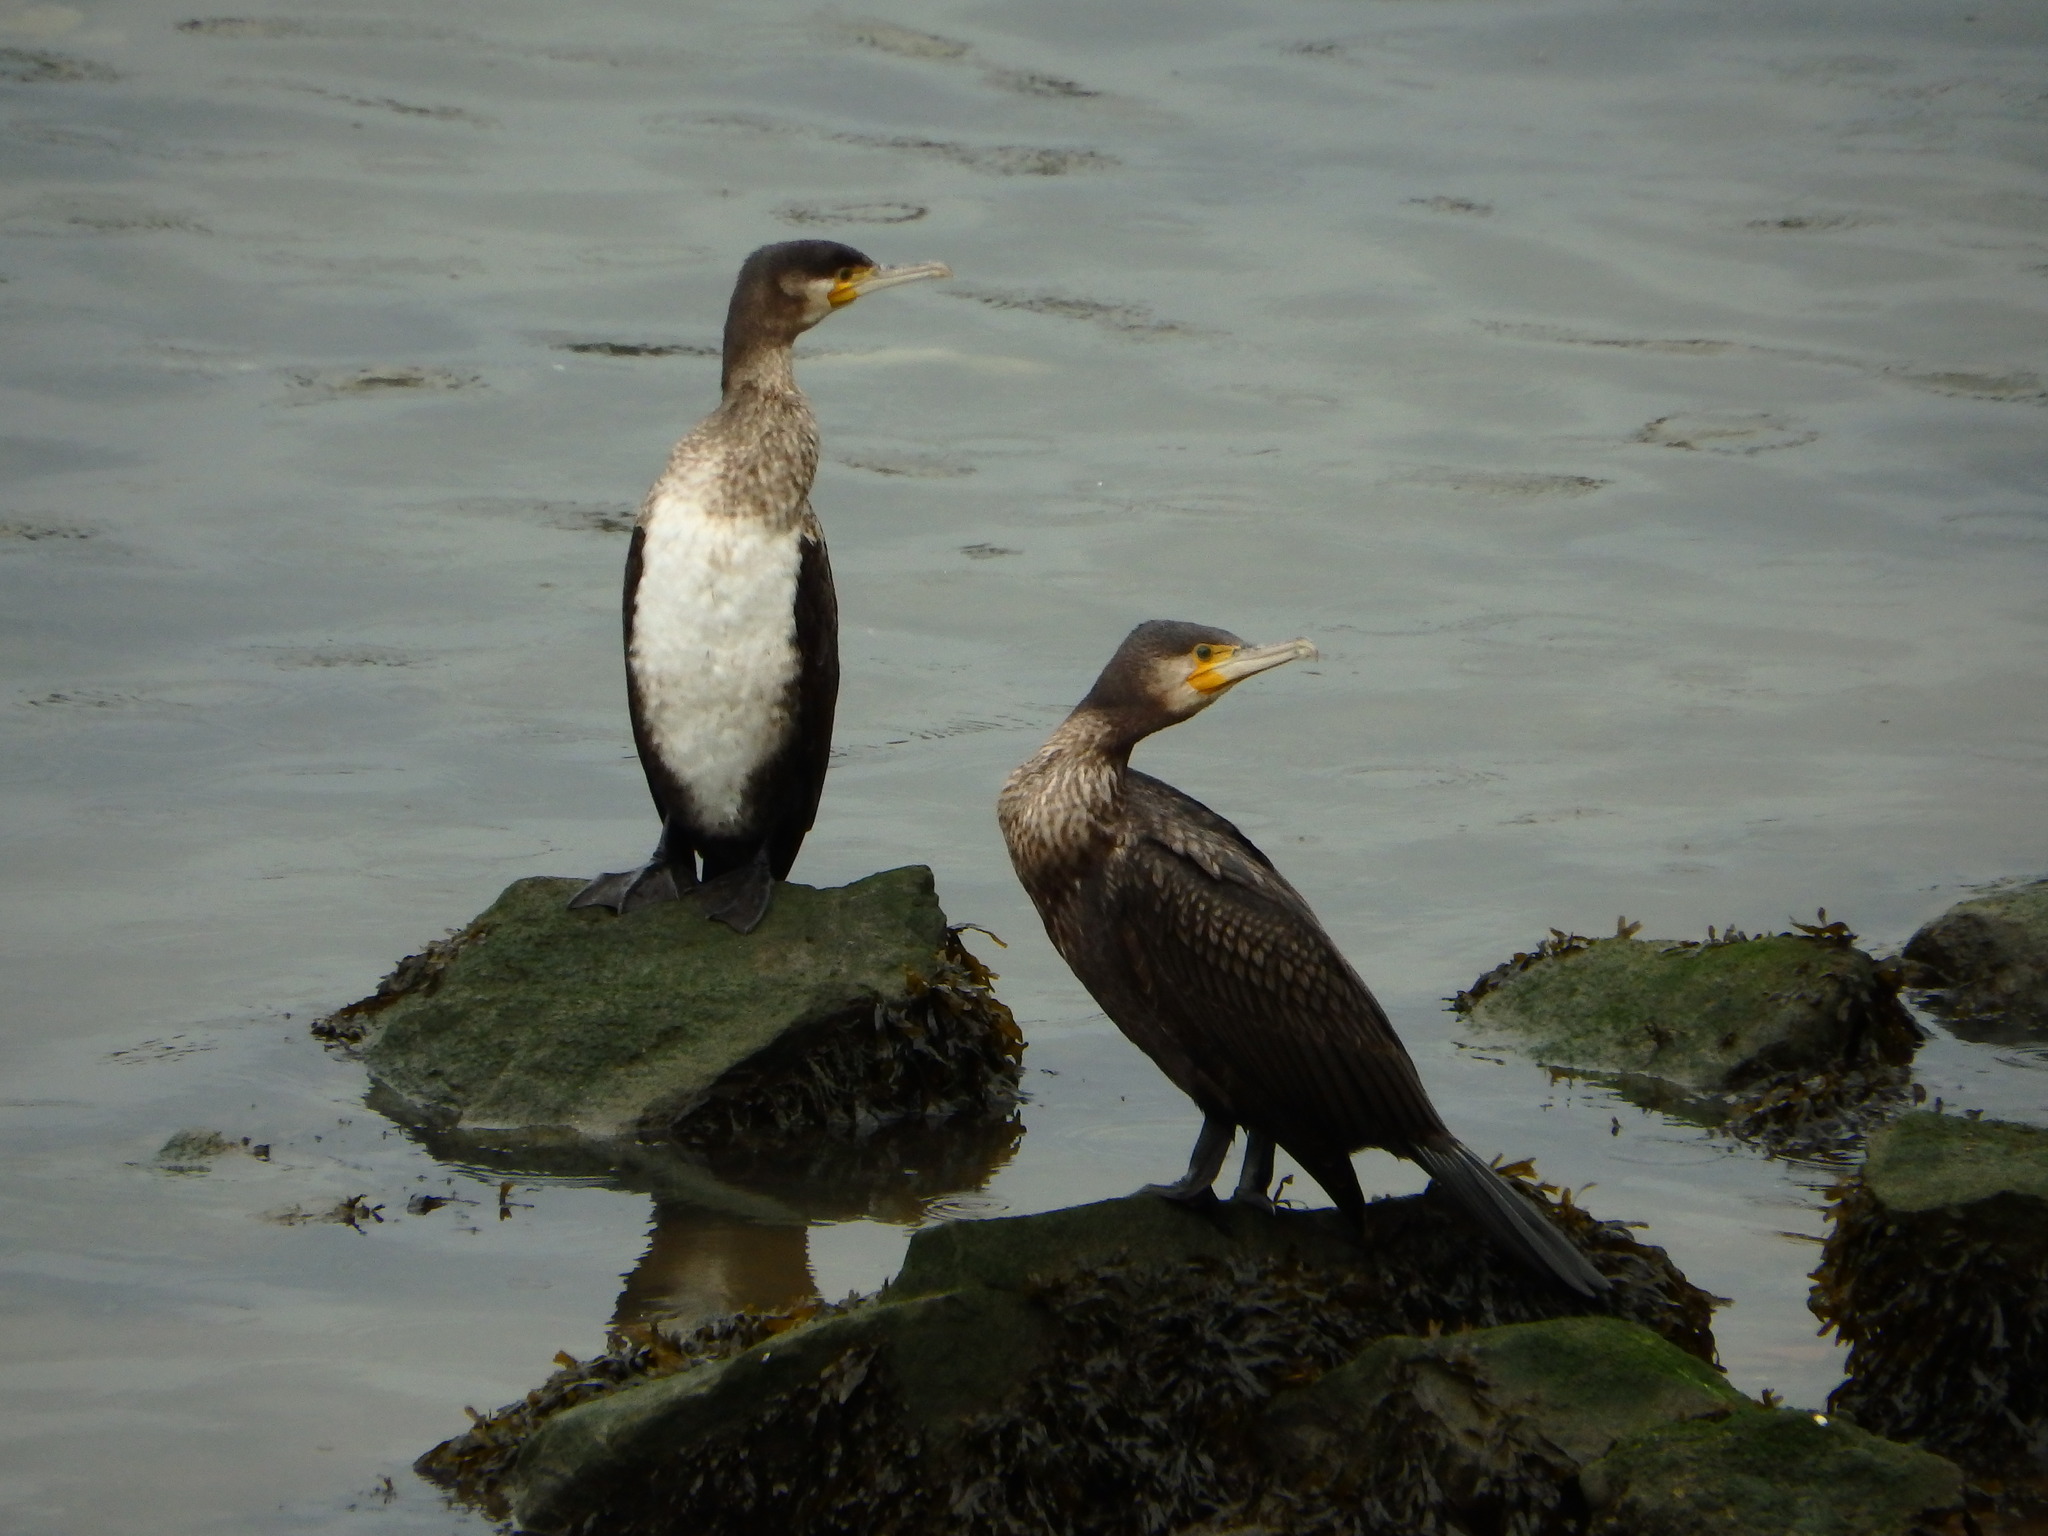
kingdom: Animalia
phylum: Chordata
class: Aves
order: Suliformes
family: Phalacrocoracidae
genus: Phalacrocorax
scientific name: Phalacrocorax carbo
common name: Great cormorant
